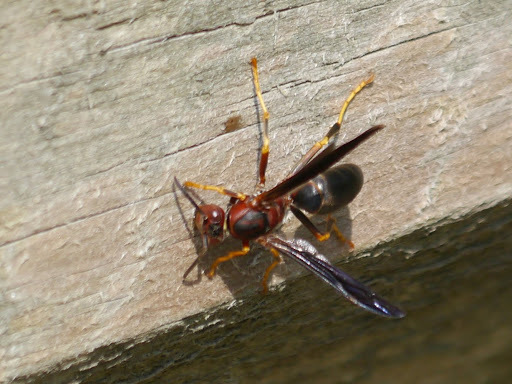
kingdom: Animalia
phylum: Arthropoda
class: Insecta
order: Hymenoptera
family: Eumenidae
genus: Polistes
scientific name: Polistes metricus
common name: Metric paper wasp
